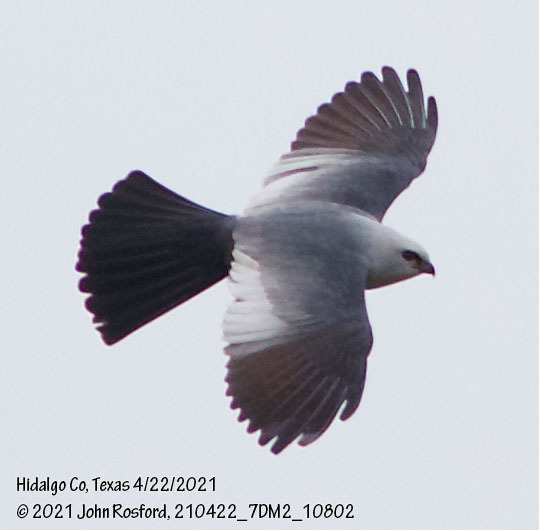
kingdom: Animalia
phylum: Chordata
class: Aves
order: Accipitriformes
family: Accipitridae
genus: Ictinia
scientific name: Ictinia mississippiensis
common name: Mississippi kite
